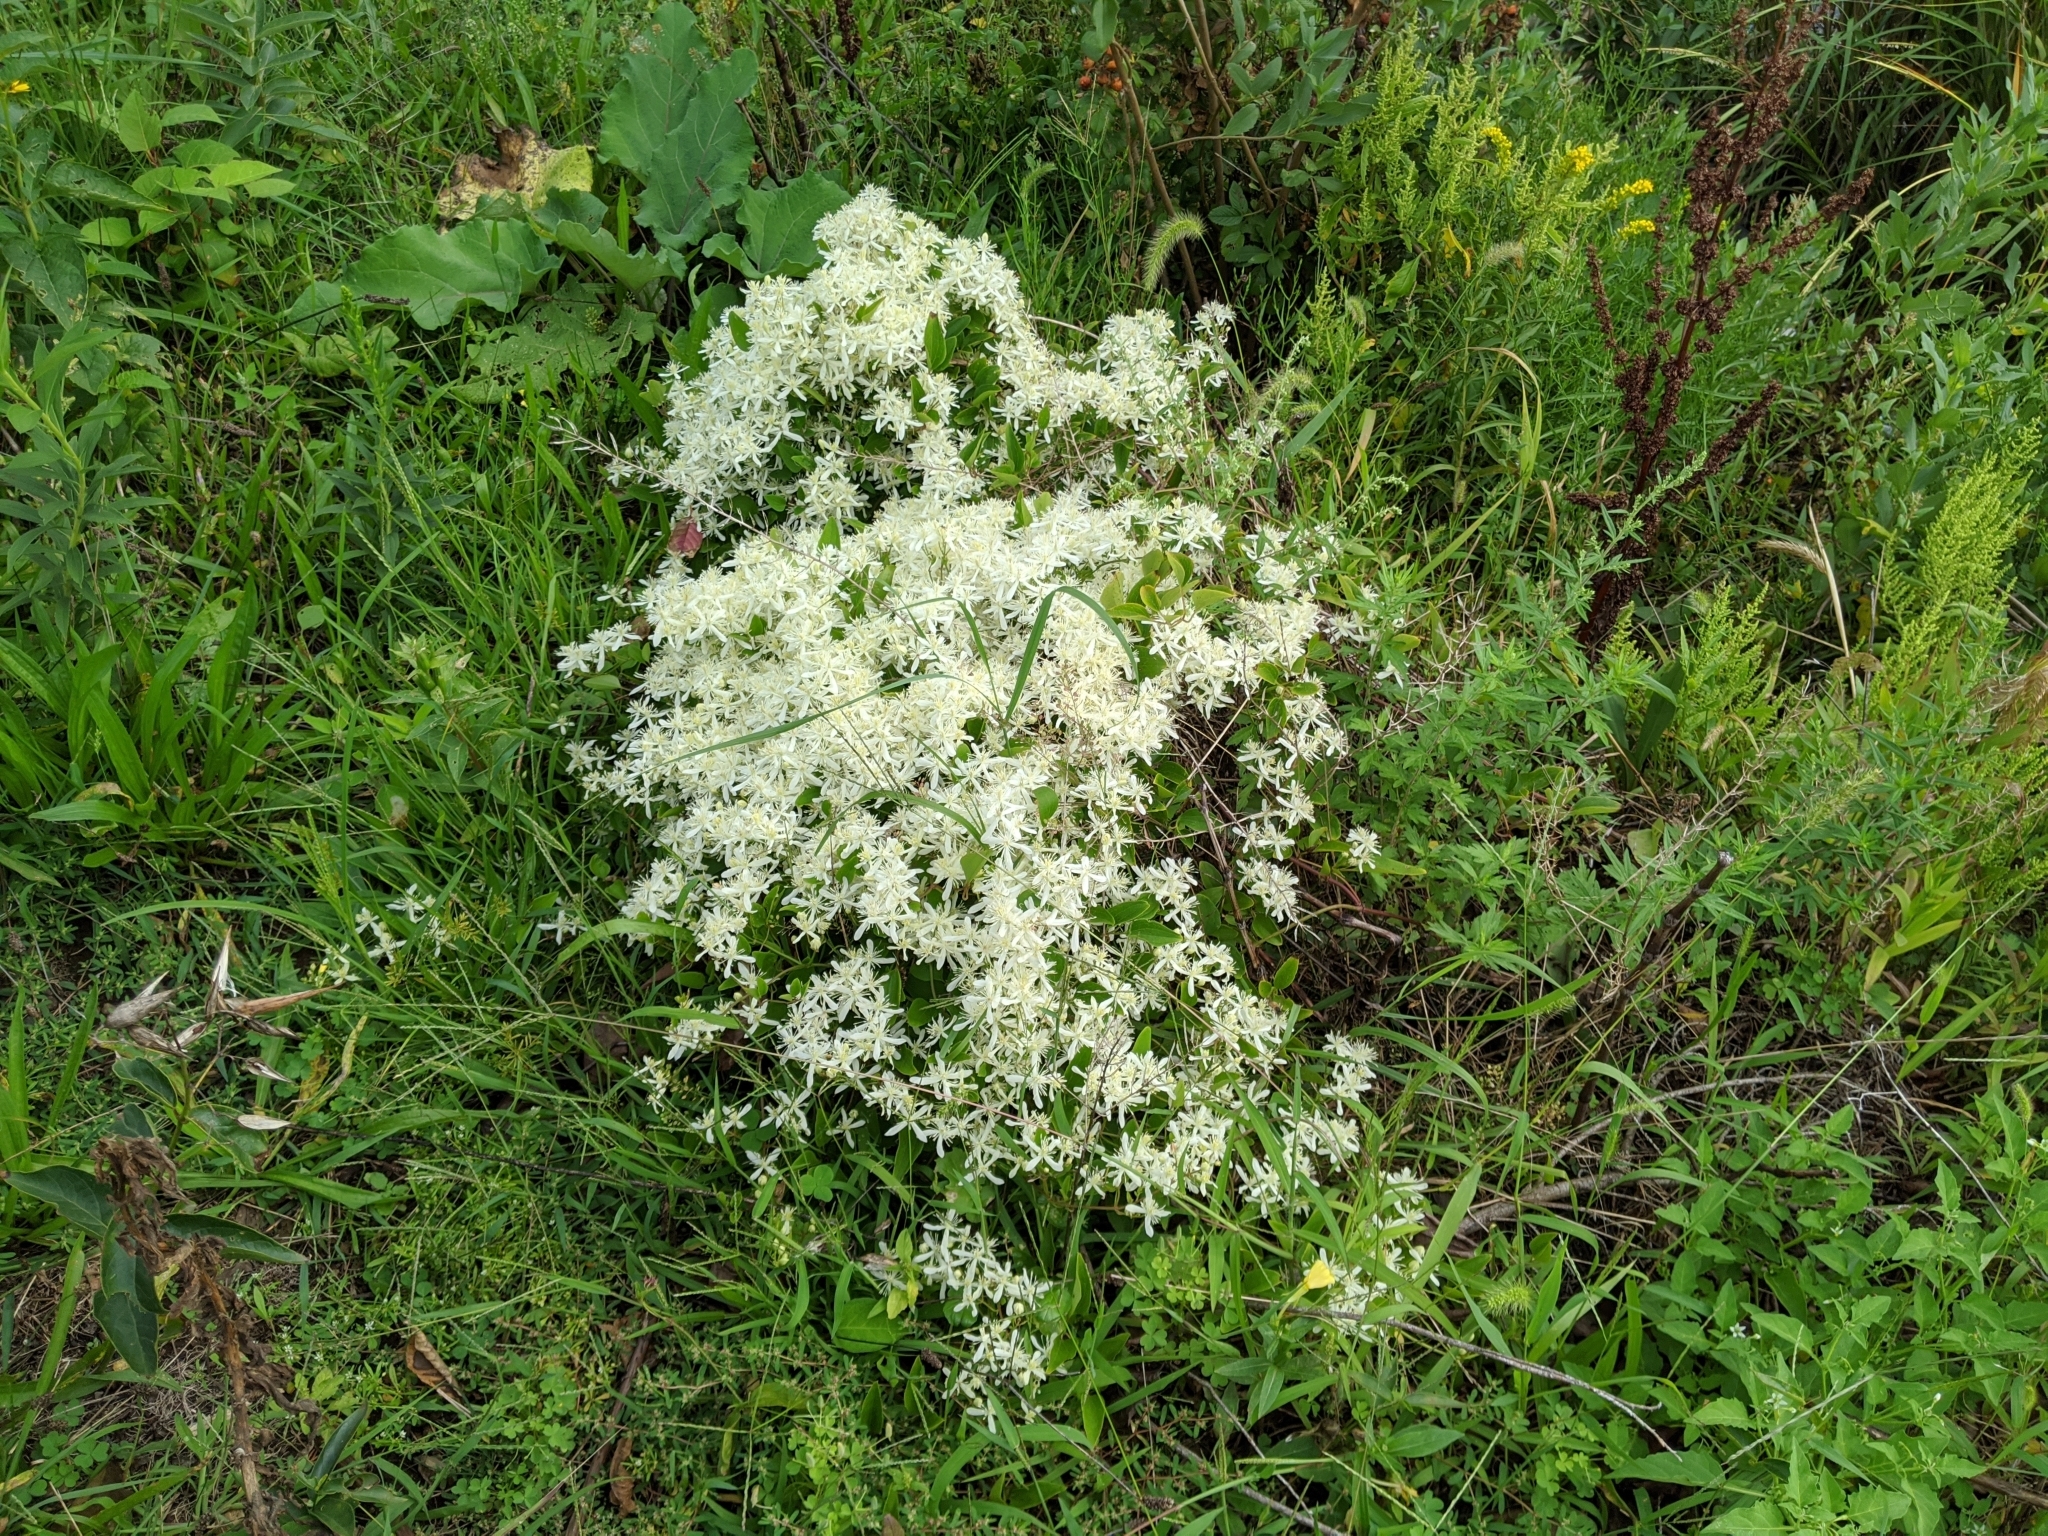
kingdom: Plantae
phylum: Tracheophyta
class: Magnoliopsida
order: Ranunculales
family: Ranunculaceae
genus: Clematis
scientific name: Clematis terniflora
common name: Sweet autumn clematis
